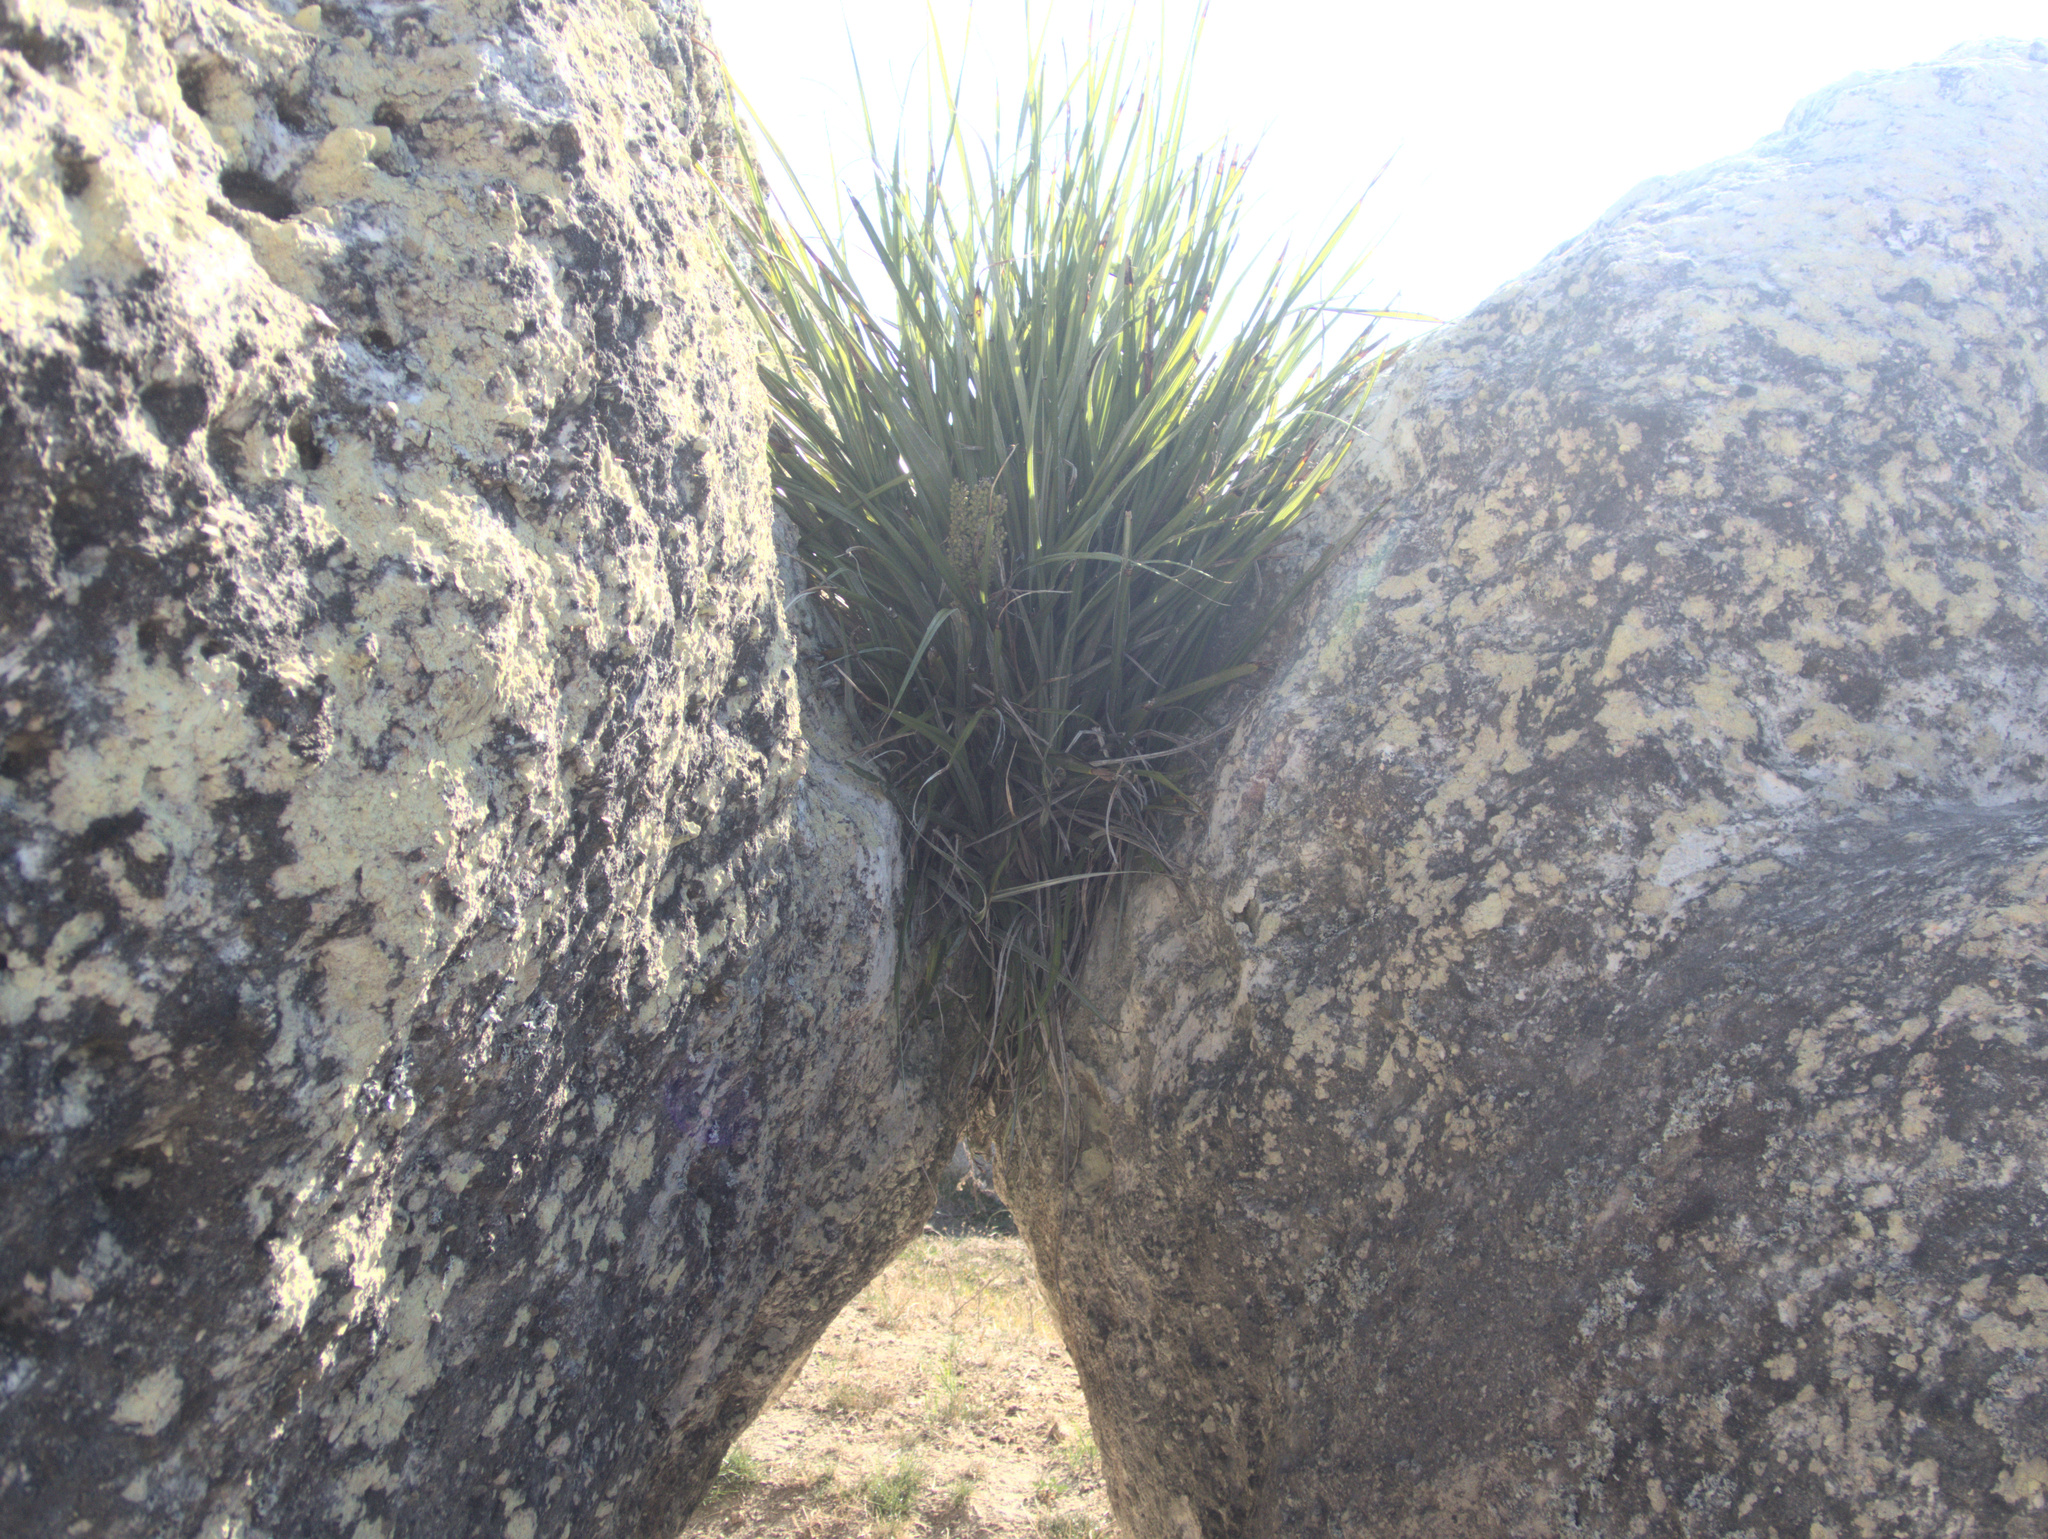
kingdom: Plantae
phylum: Tracheophyta
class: Liliopsida
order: Asparagales
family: Asteliaceae
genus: Astelia
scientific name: Astelia banksii
